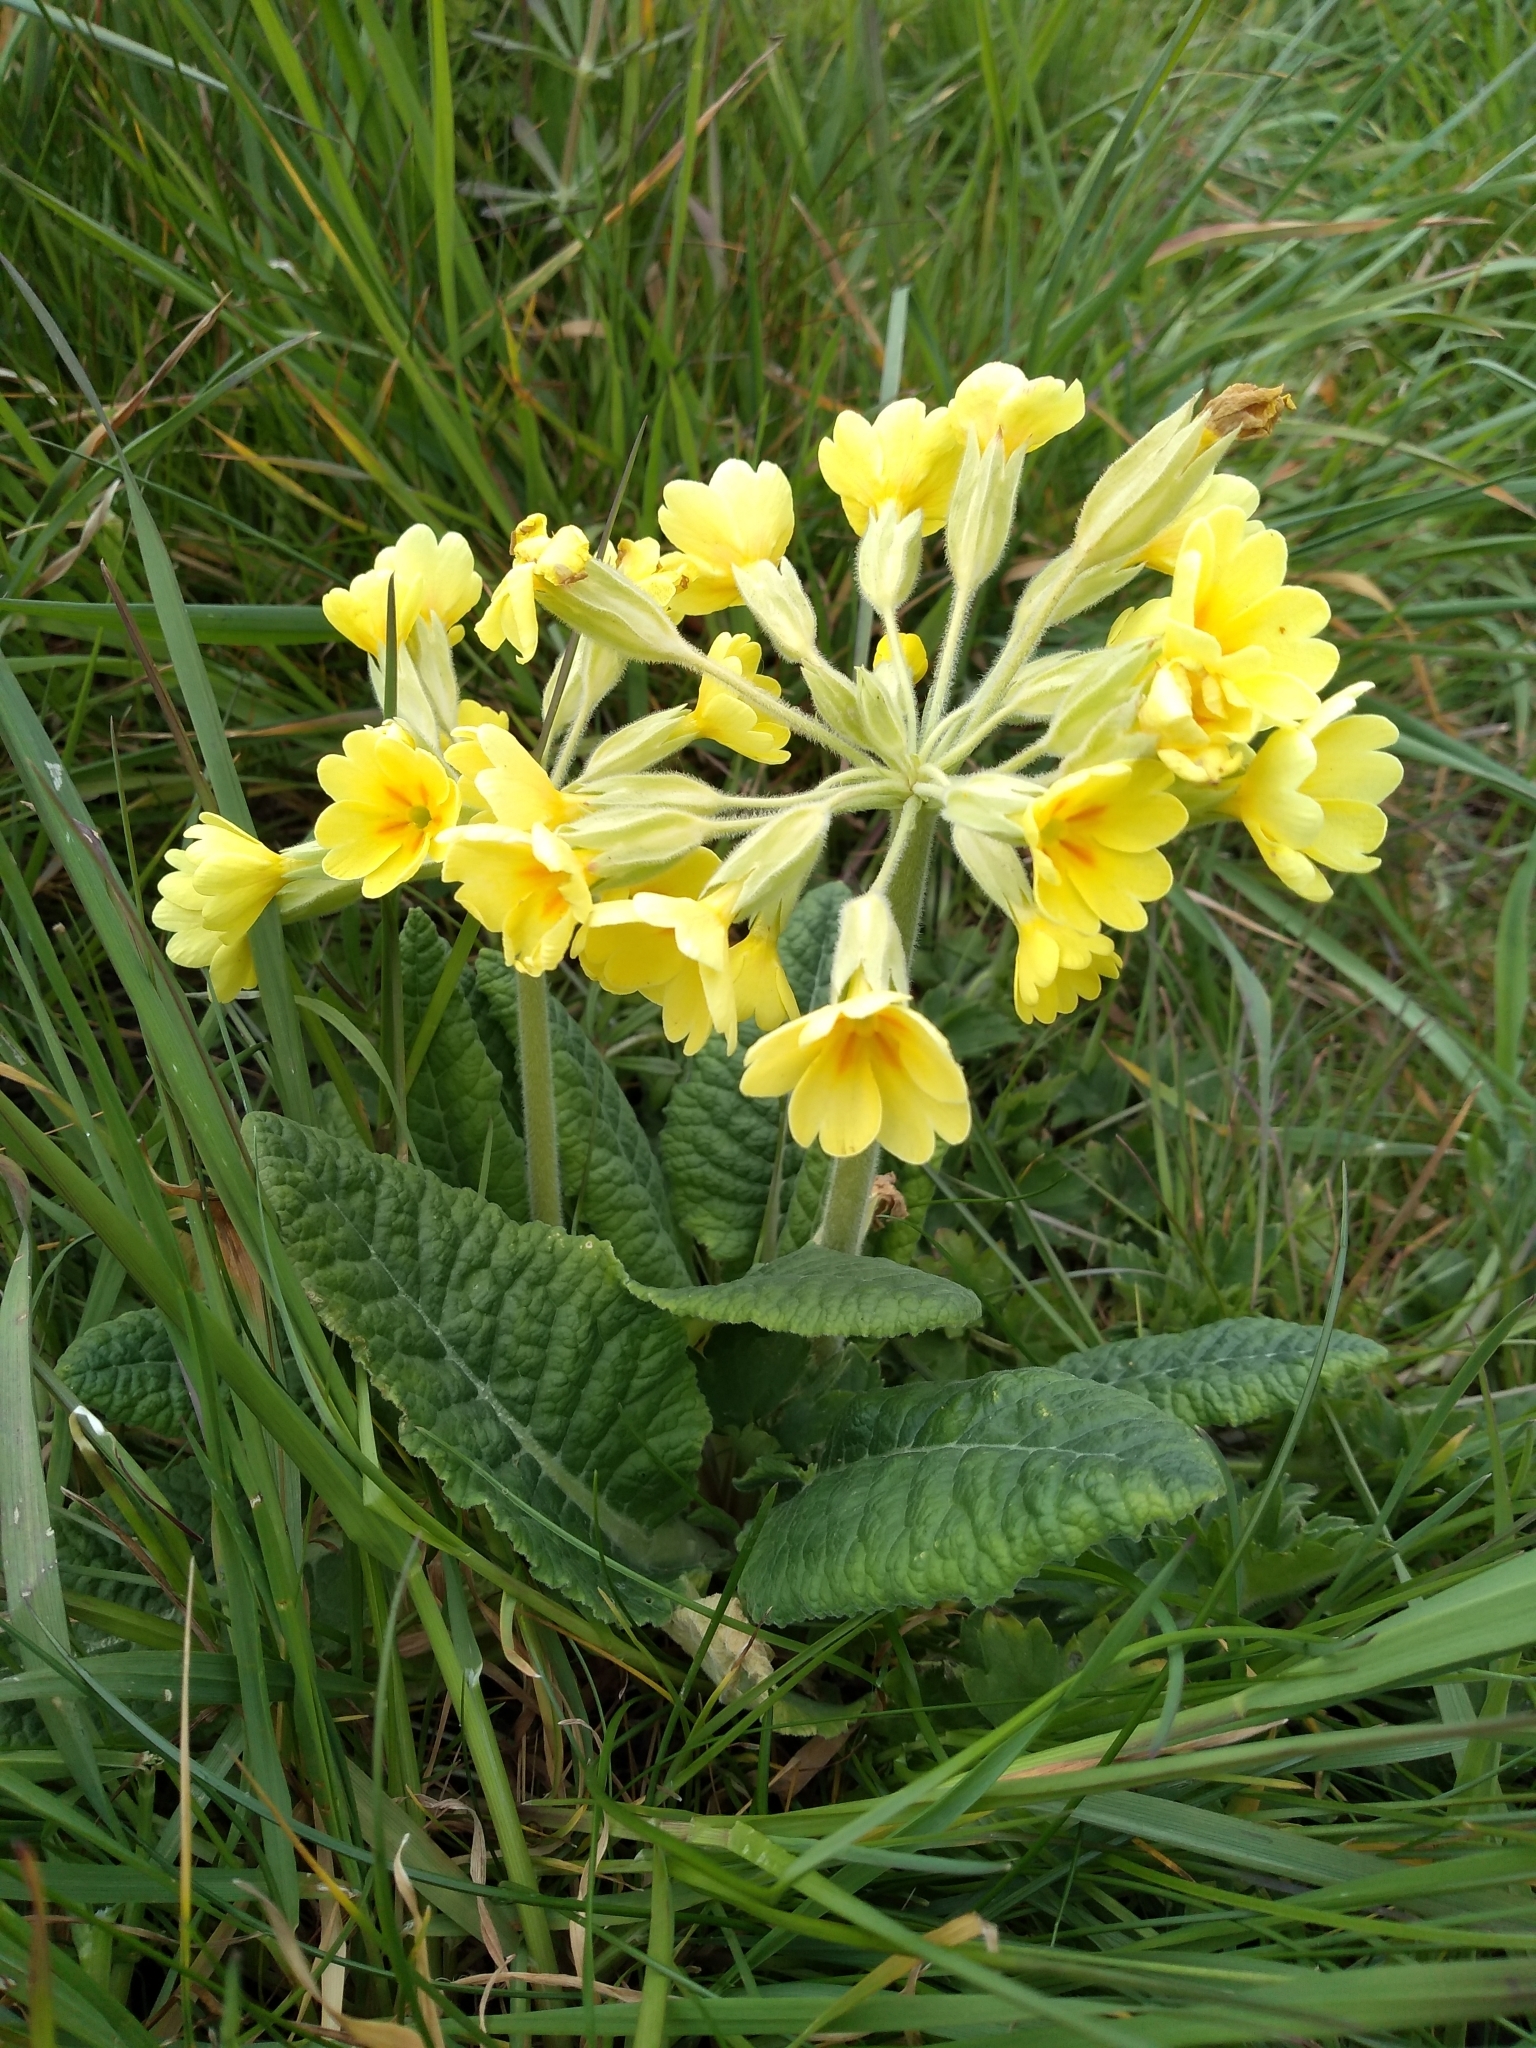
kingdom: Plantae
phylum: Tracheophyta
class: Magnoliopsida
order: Ericales
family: Primulaceae
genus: Primula
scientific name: Primula polyantha
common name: False oxlip
